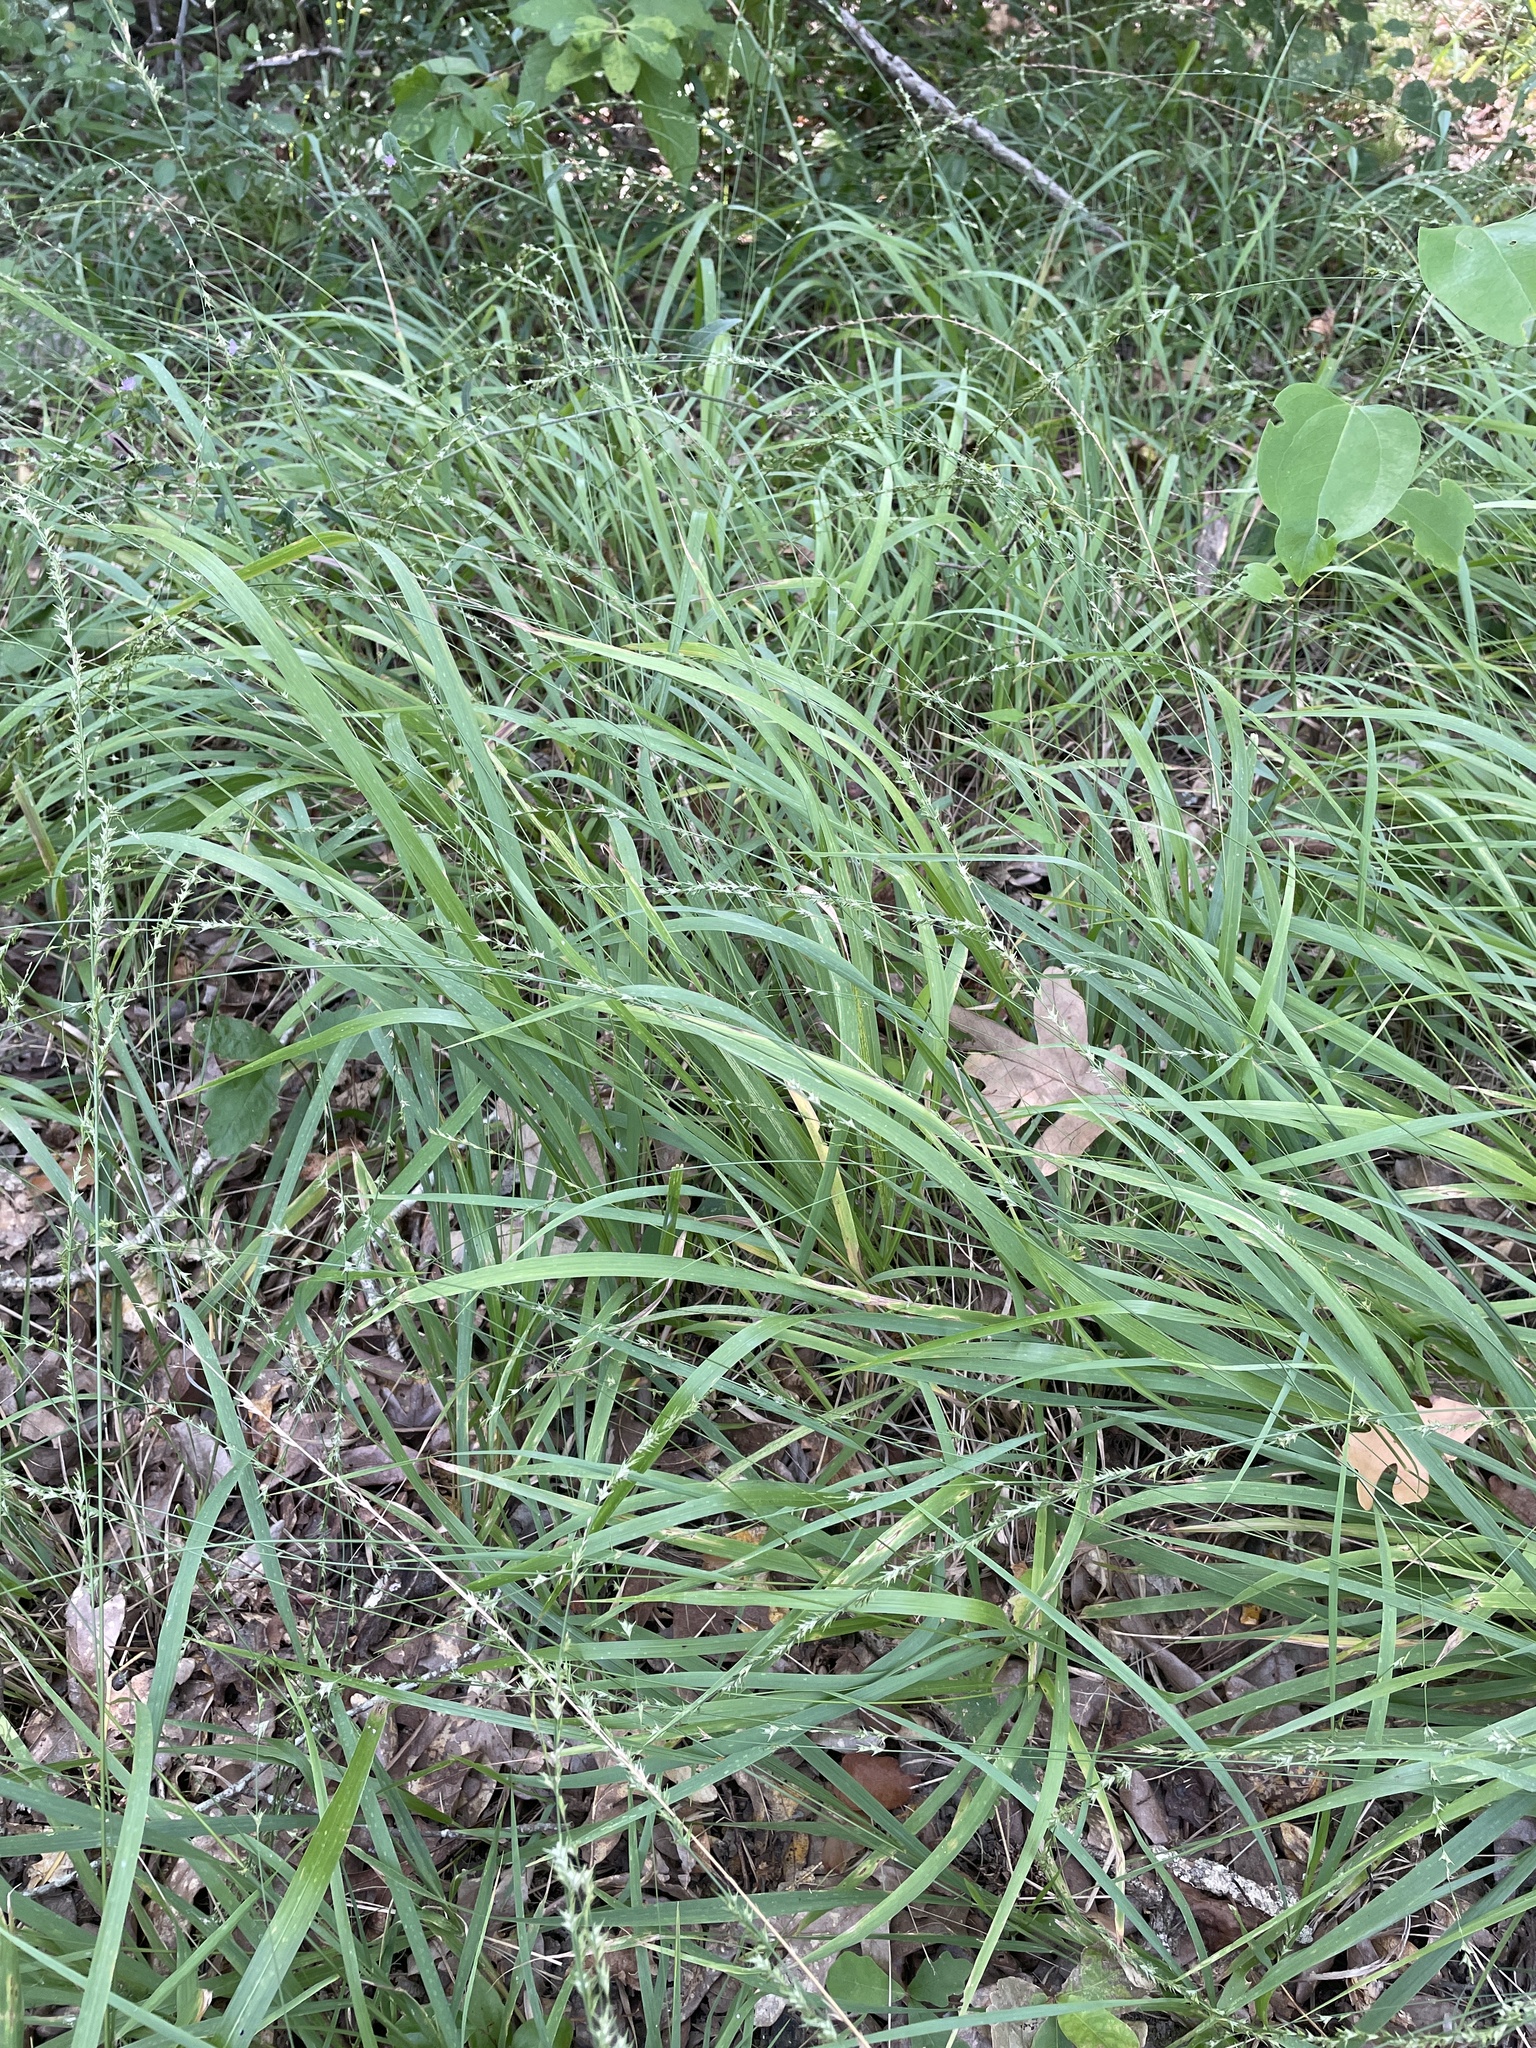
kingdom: Plantae
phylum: Tracheophyta
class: Liliopsida
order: Poales
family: Poaceae
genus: Chasmanthium
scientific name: Chasmanthium laxum
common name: Slender chasmanthium
